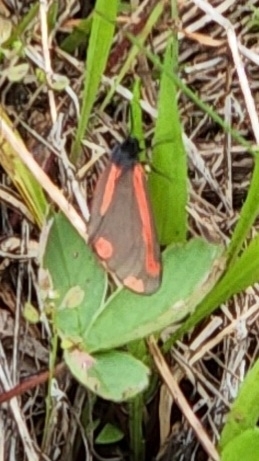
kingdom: Animalia
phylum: Arthropoda
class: Insecta
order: Lepidoptera
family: Erebidae
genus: Tyria
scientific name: Tyria jacobaeae
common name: Cinnabar
